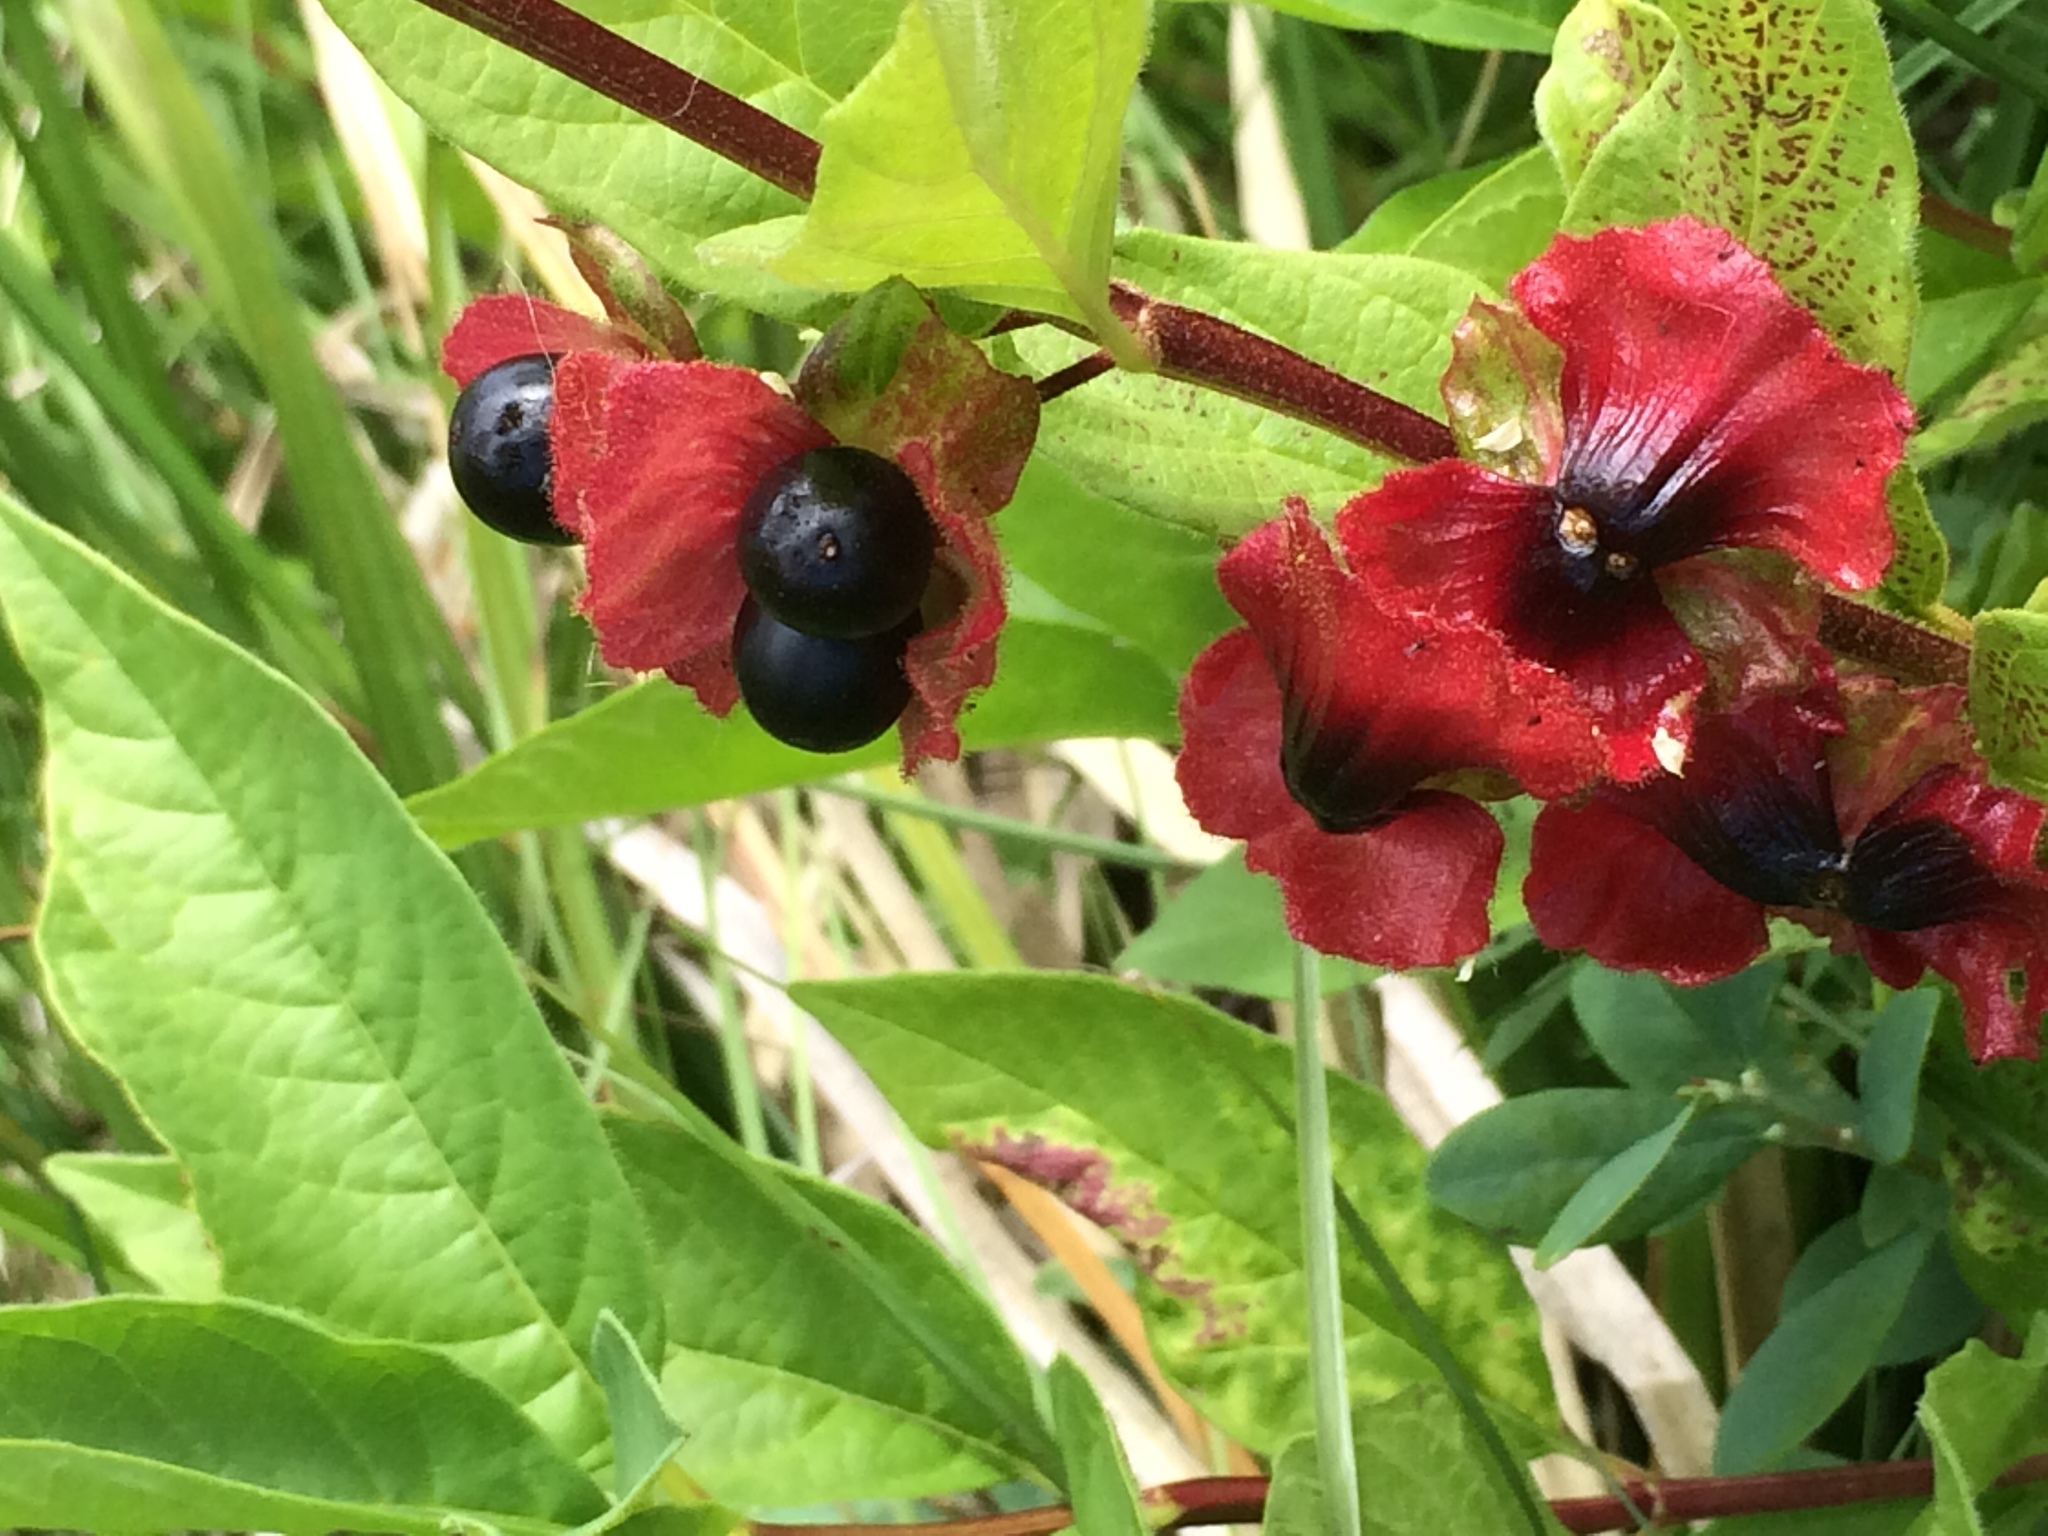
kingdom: Plantae
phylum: Tracheophyta
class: Magnoliopsida
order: Dipsacales
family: Caprifoliaceae
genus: Lonicera
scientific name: Lonicera involucrata
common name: Californian honeysuckle
